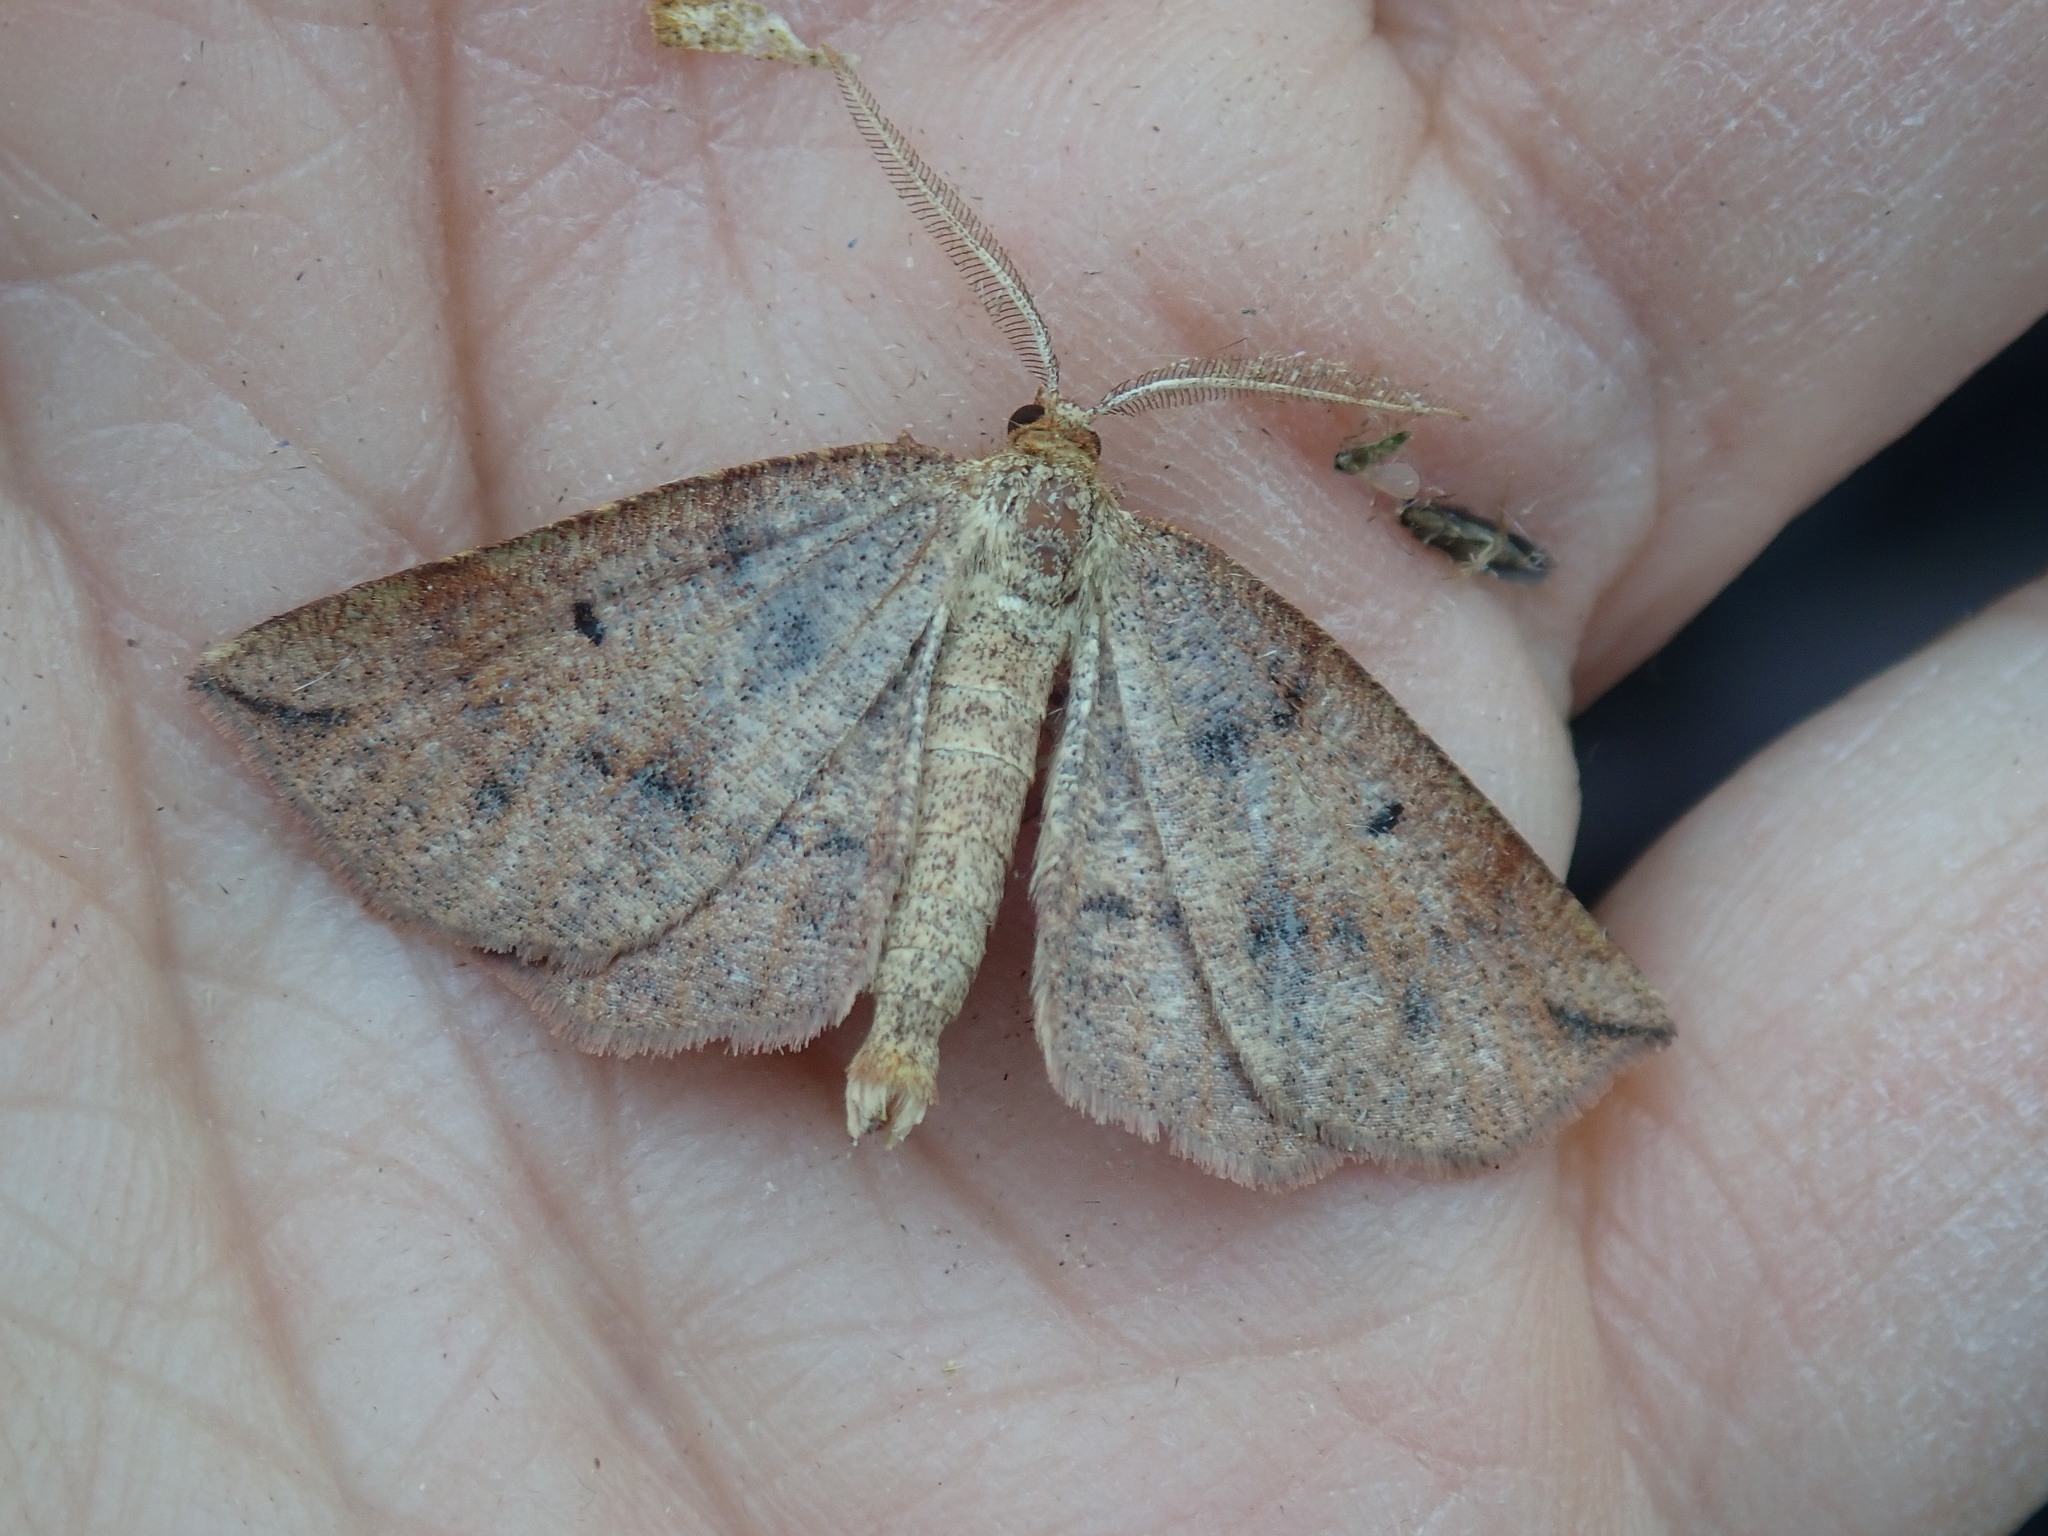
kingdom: Animalia
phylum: Arthropoda
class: Insecta
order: Lepidoptera
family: Geometridae
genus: Metarranthis
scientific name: Metarranthis duaria
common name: Ruddy metarranthis moth
